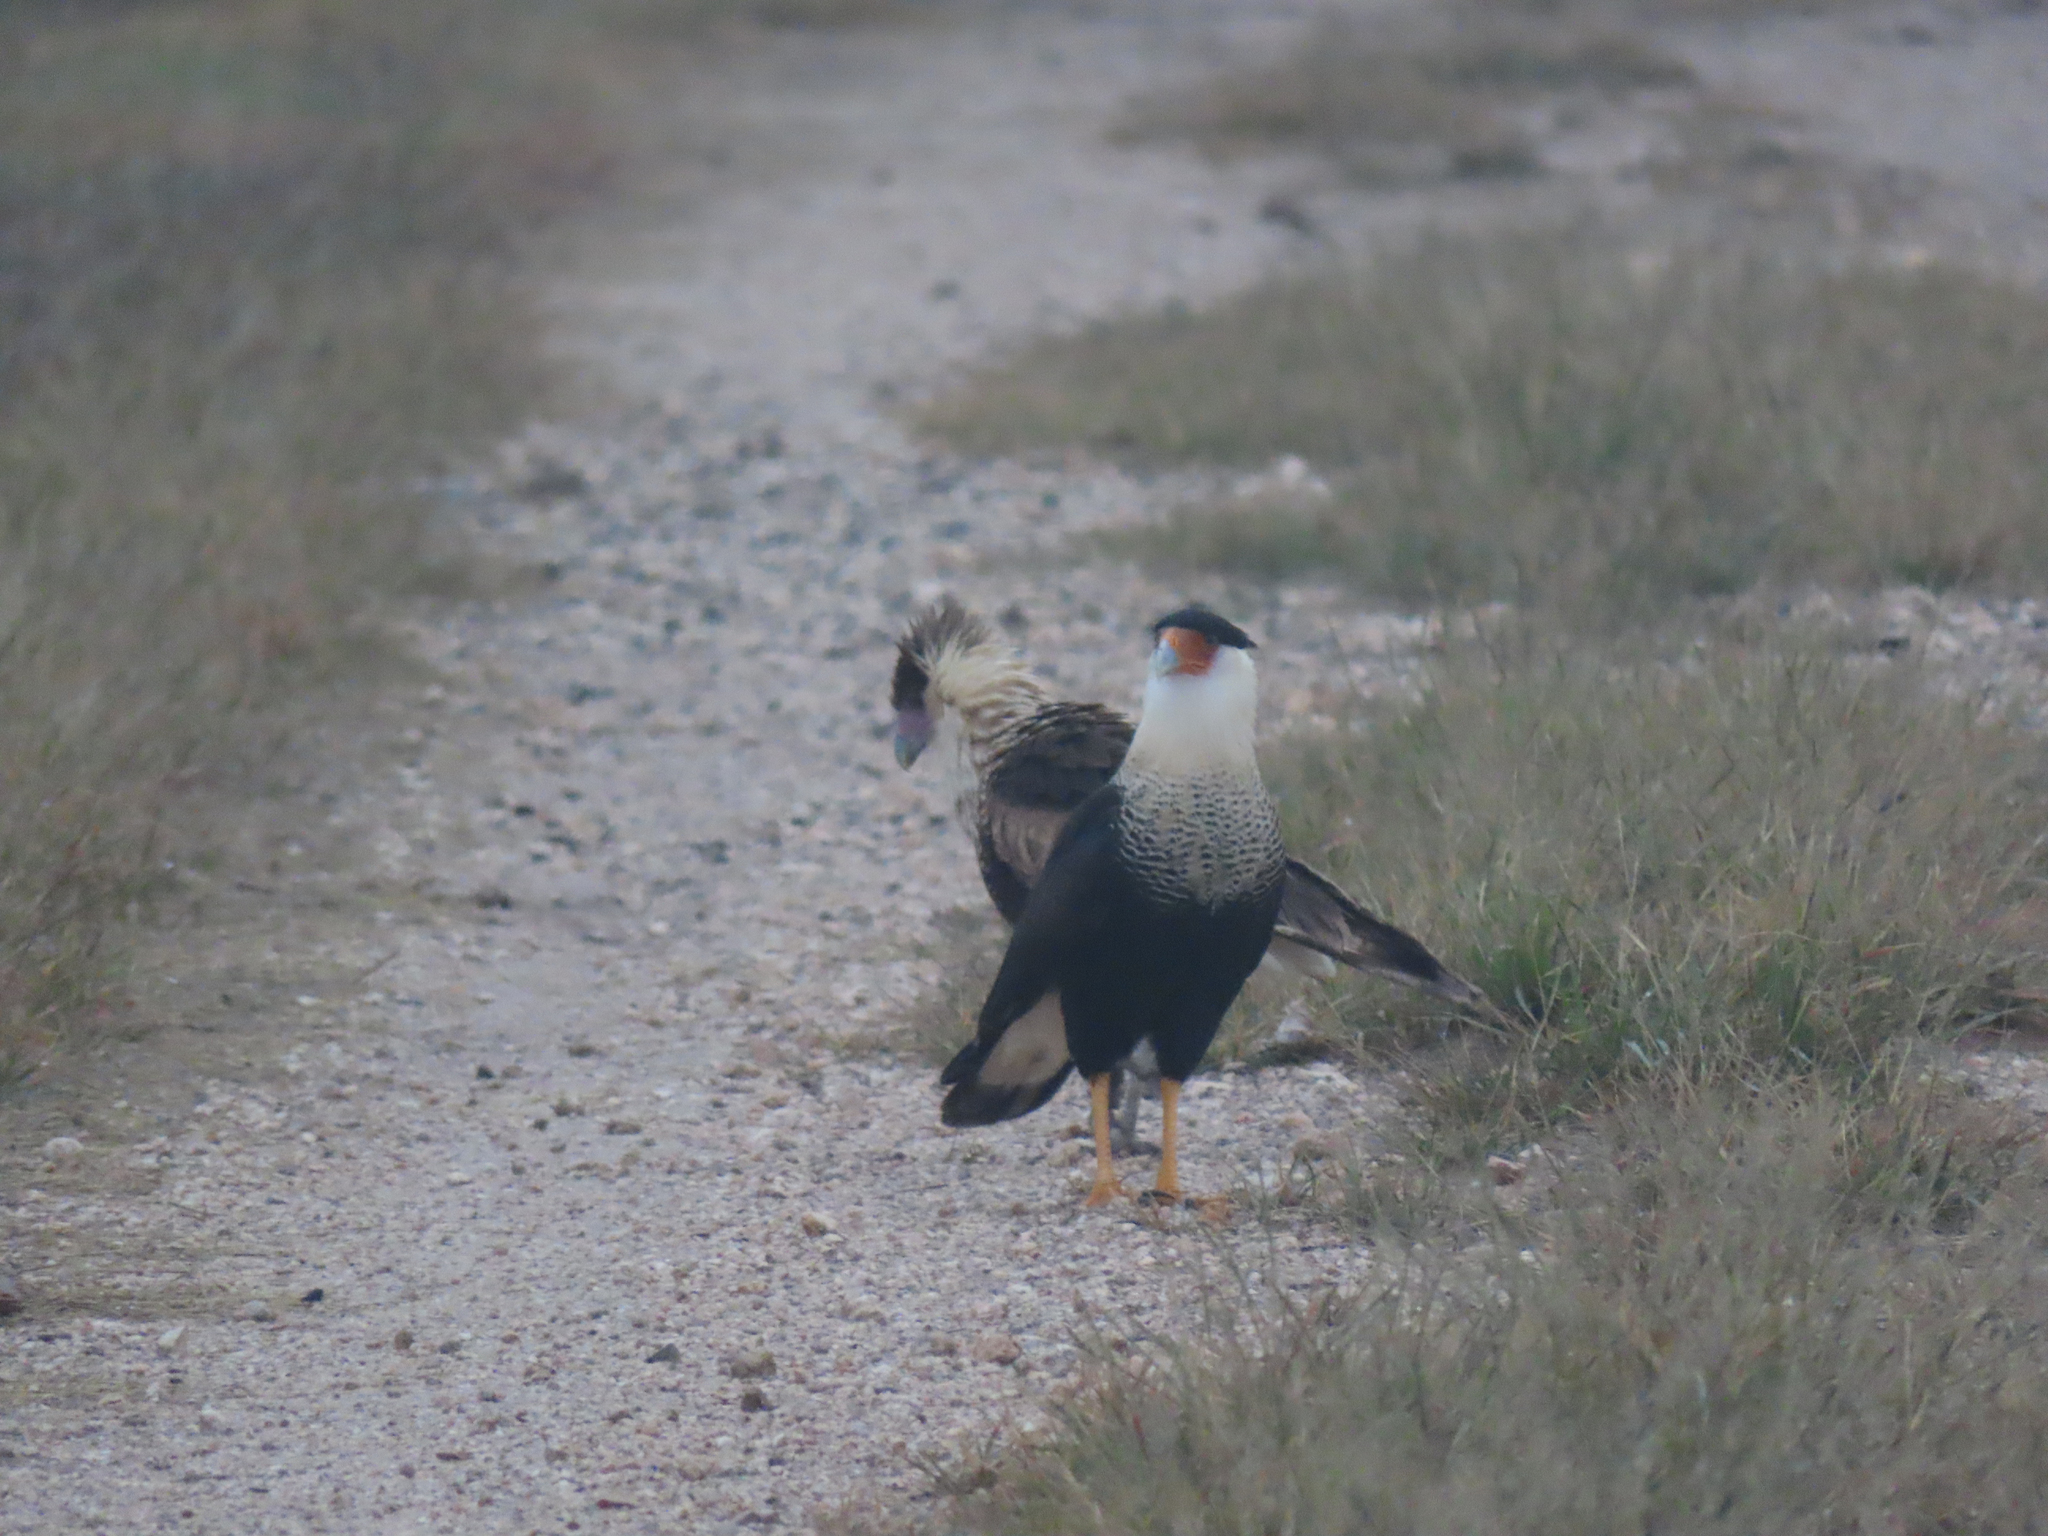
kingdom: Animalia
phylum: Chordata
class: Aves
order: Falconiformes
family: Falconidae
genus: Caracara
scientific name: Caracara plancus
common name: Southern caracara
